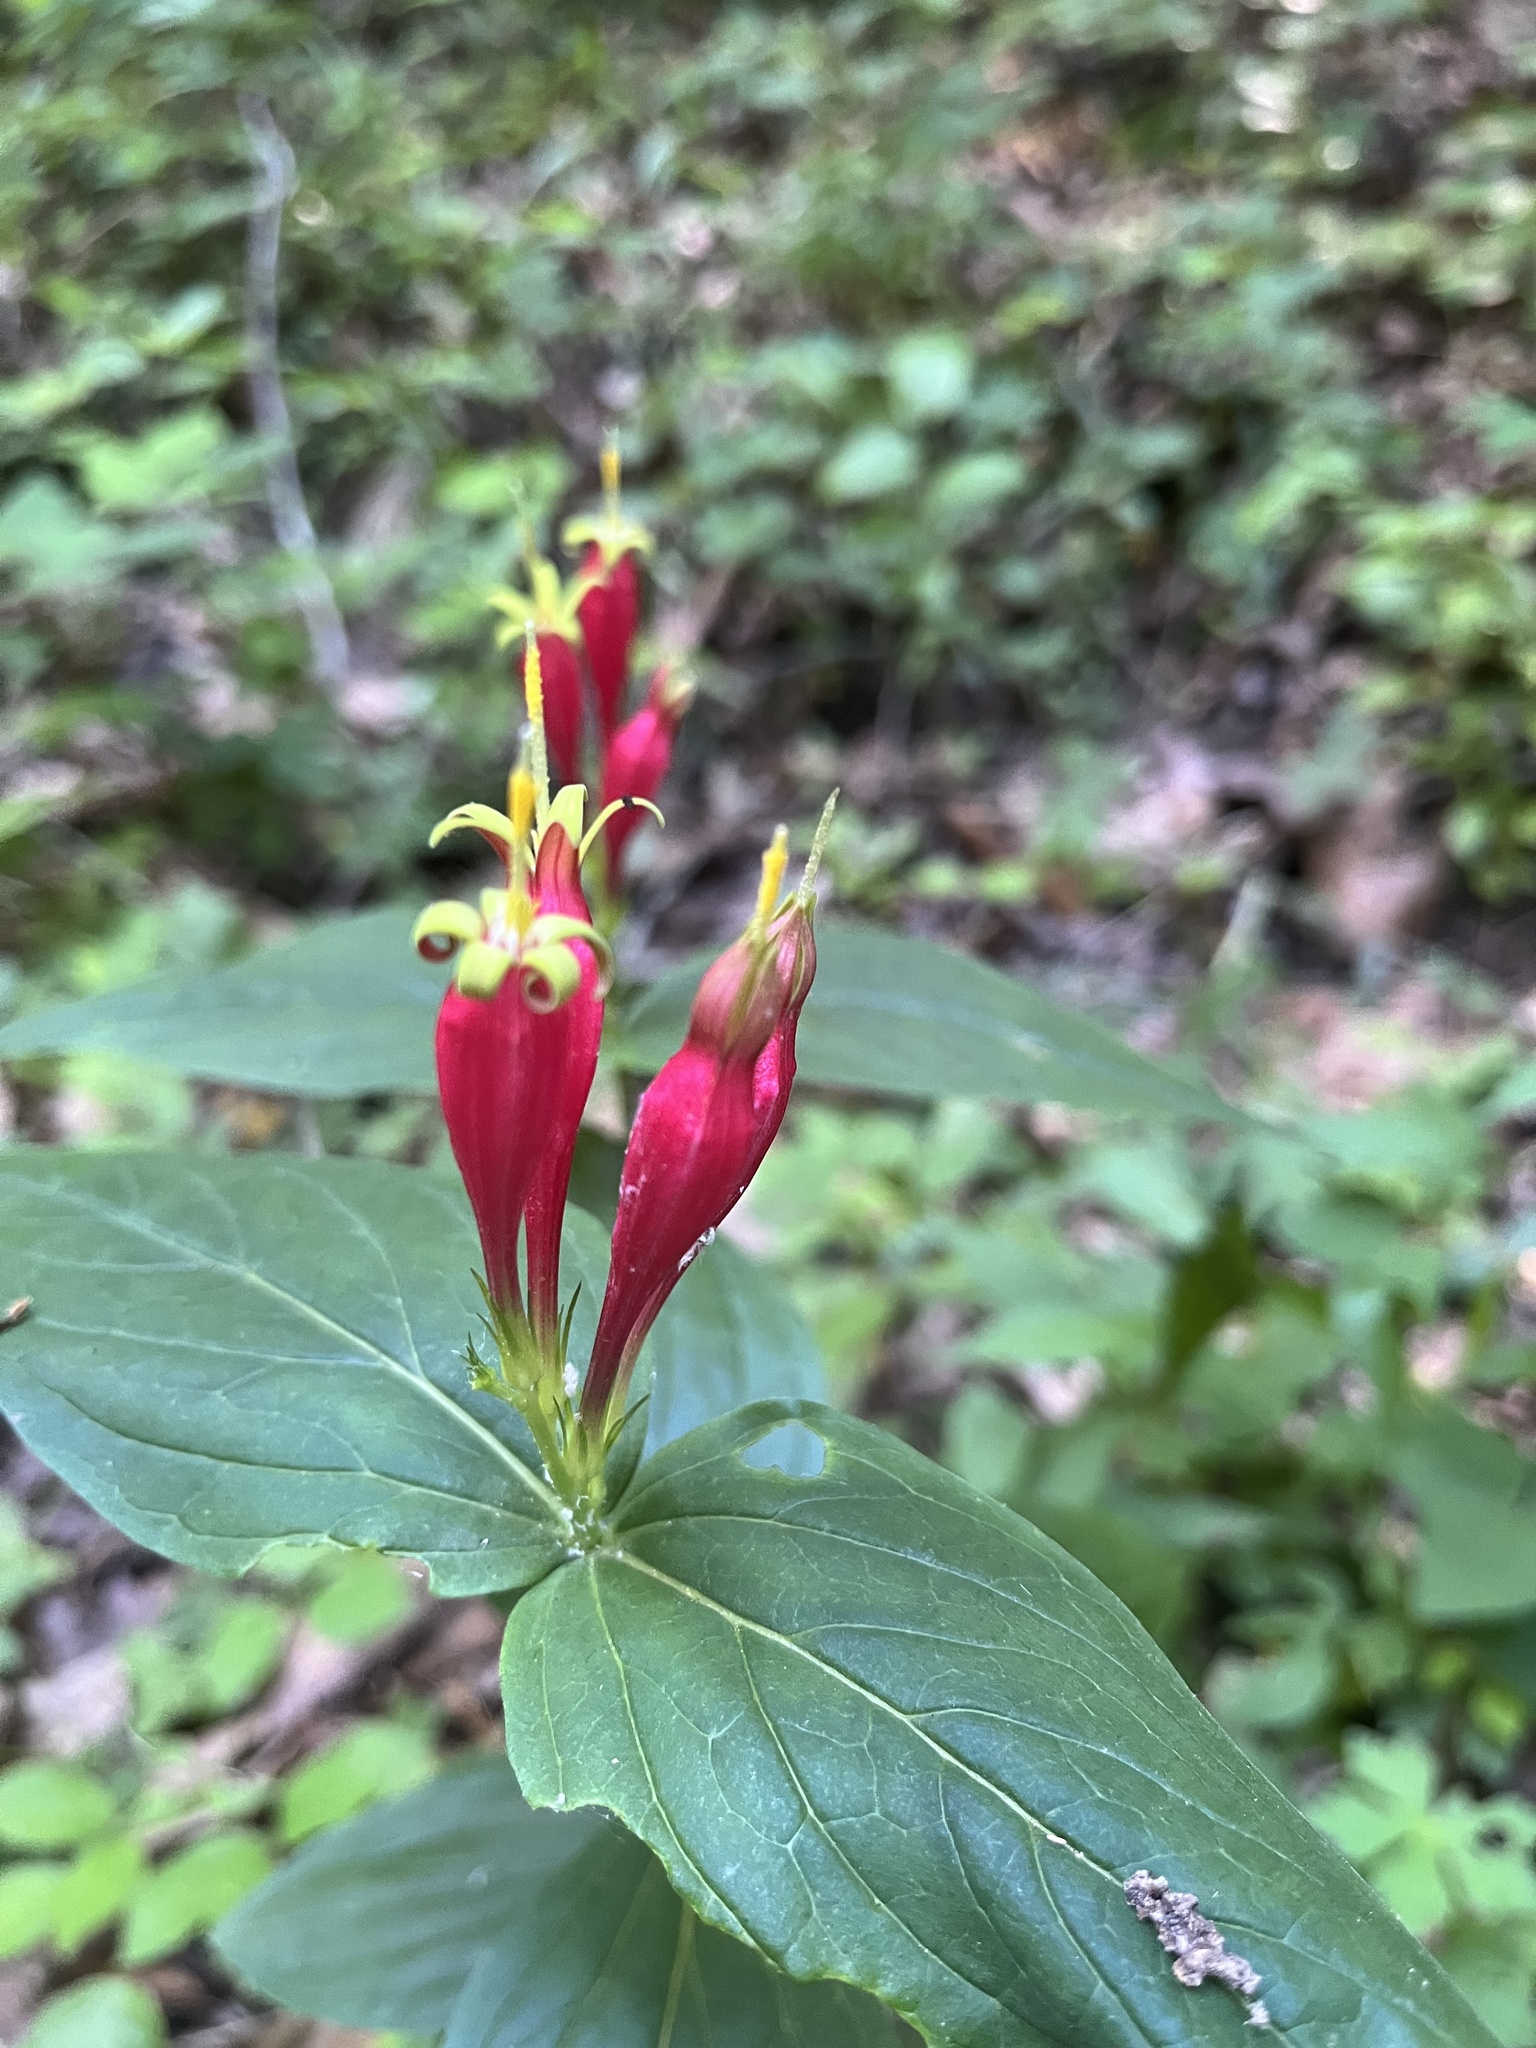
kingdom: Plantae
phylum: Tracheophyta
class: Magnoliopsida
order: Gentianales
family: Loganiaceae
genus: Spigelia
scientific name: Spigelia marilandica
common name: Indian-pink
